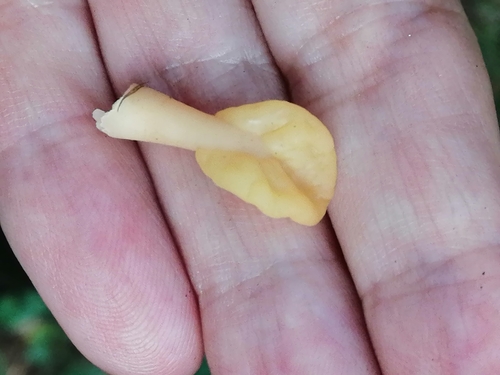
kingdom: Fungi
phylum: Ascomycota
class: Leotiomycetes
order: Rhytismatales
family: Cudoniaceae
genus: Spathularia
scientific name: Spathularia rufa
